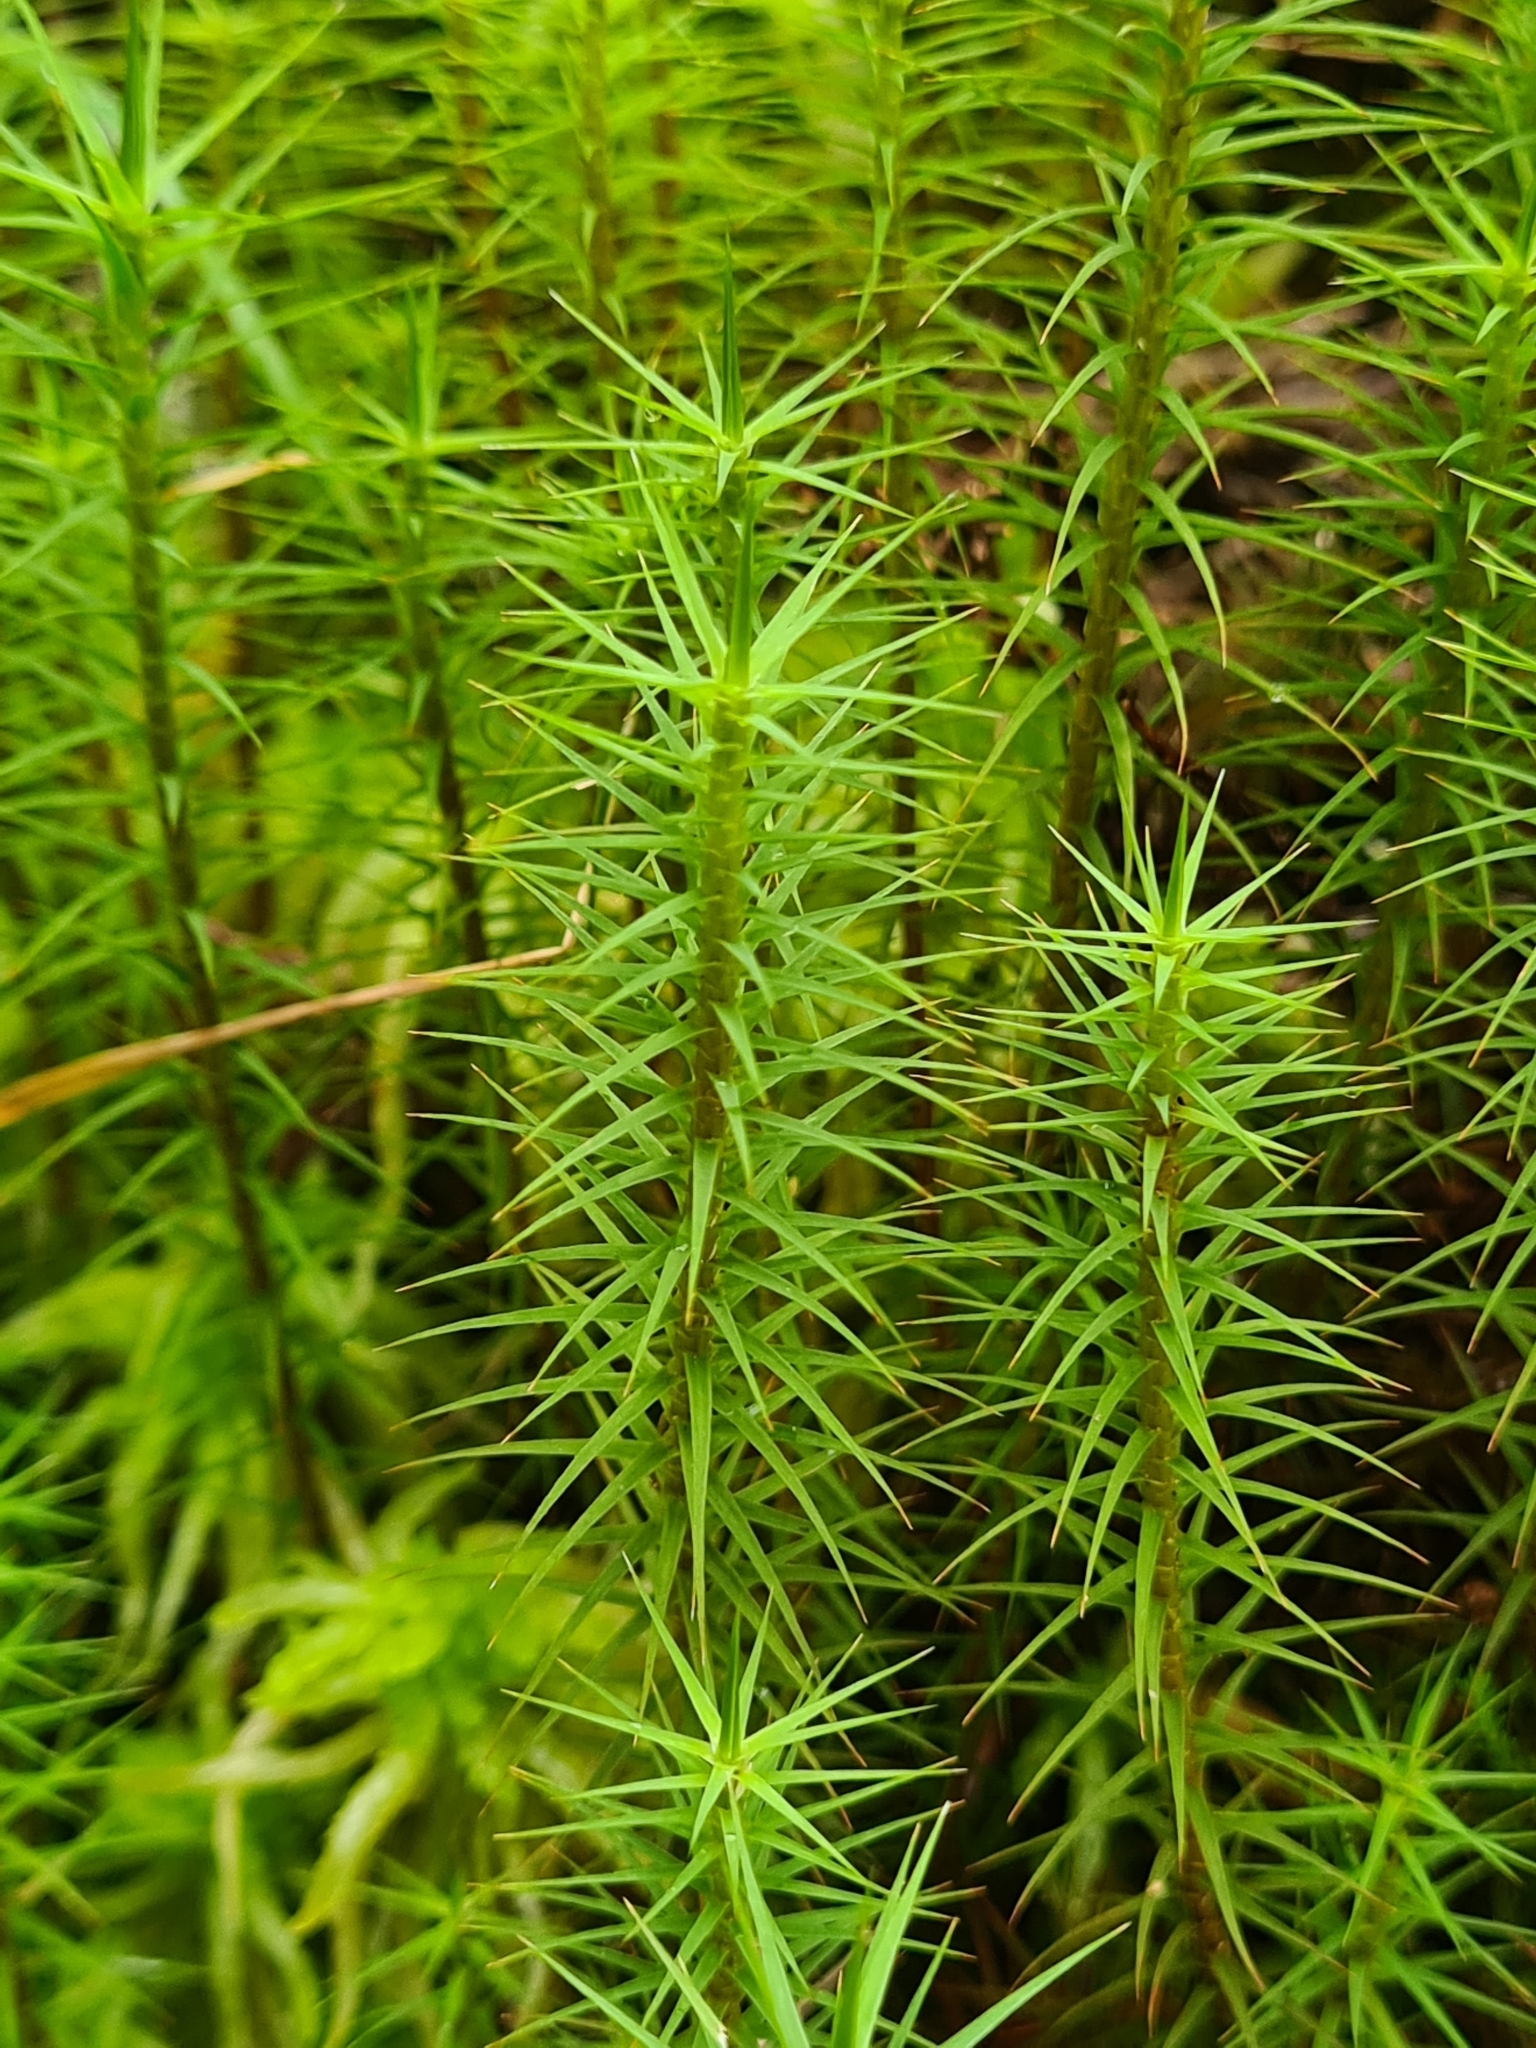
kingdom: Plantae
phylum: Bryophyta
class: Polytrichopsida
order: Polytrichales
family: Polytrichaceae
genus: Polytrichum
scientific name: Polytrichum commune
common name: Common haircap
